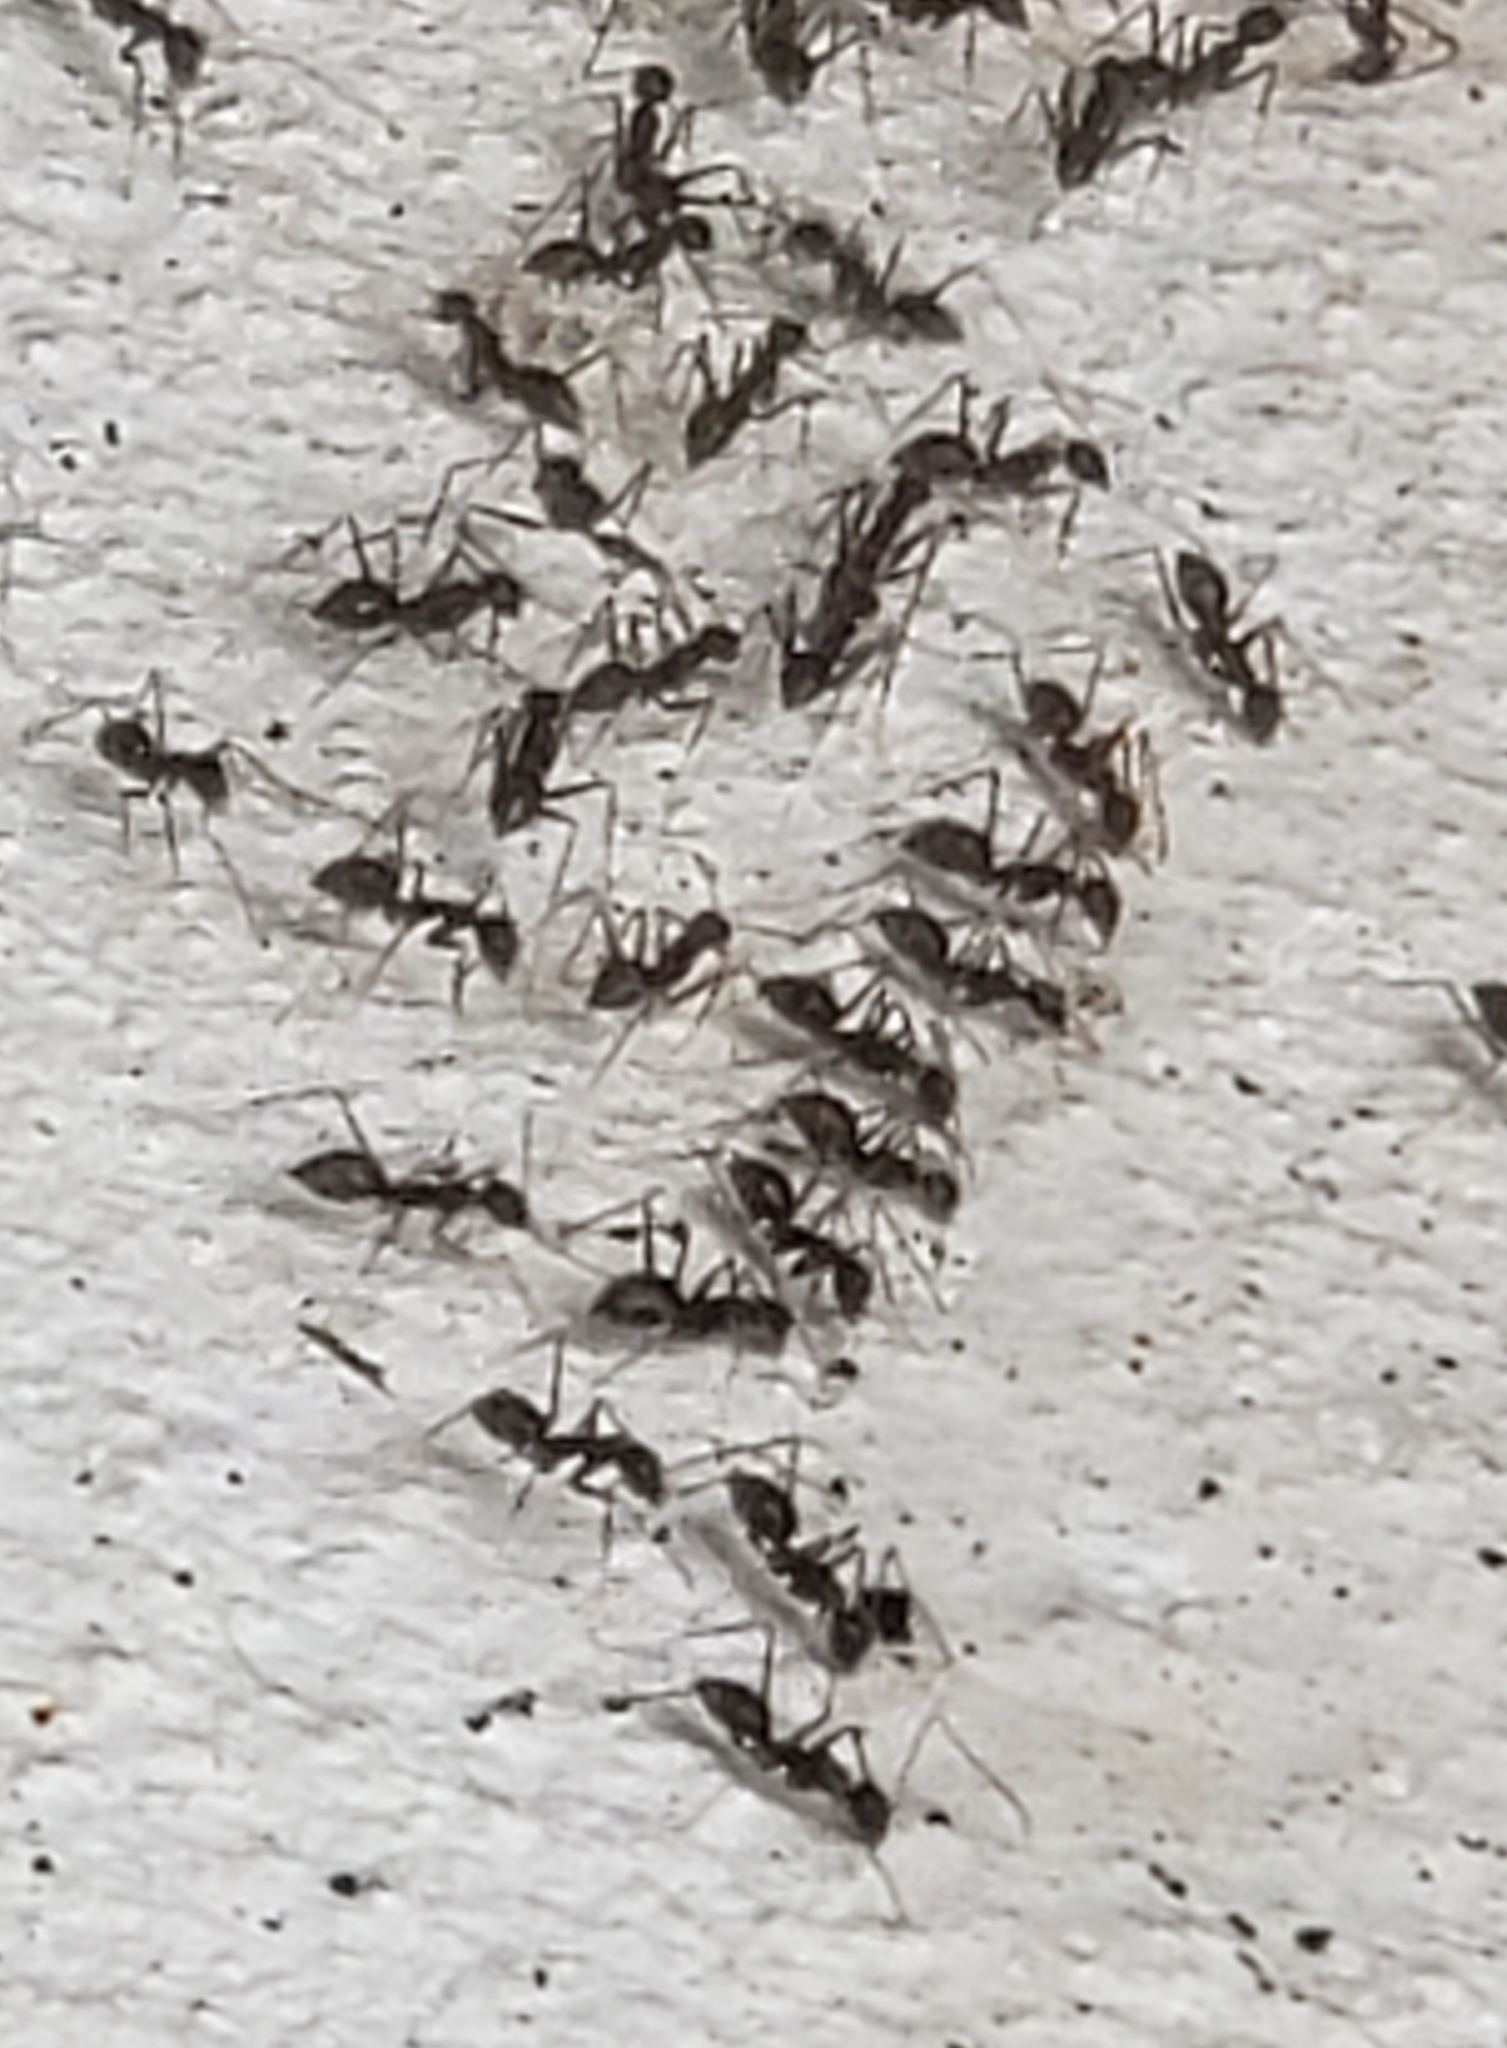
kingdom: Animalia
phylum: Arthropoda
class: Insecta
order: Hymenoptera
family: Formicidae
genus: Paratrechina
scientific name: Paratrechina longicornis
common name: Longhorned crazy ant
